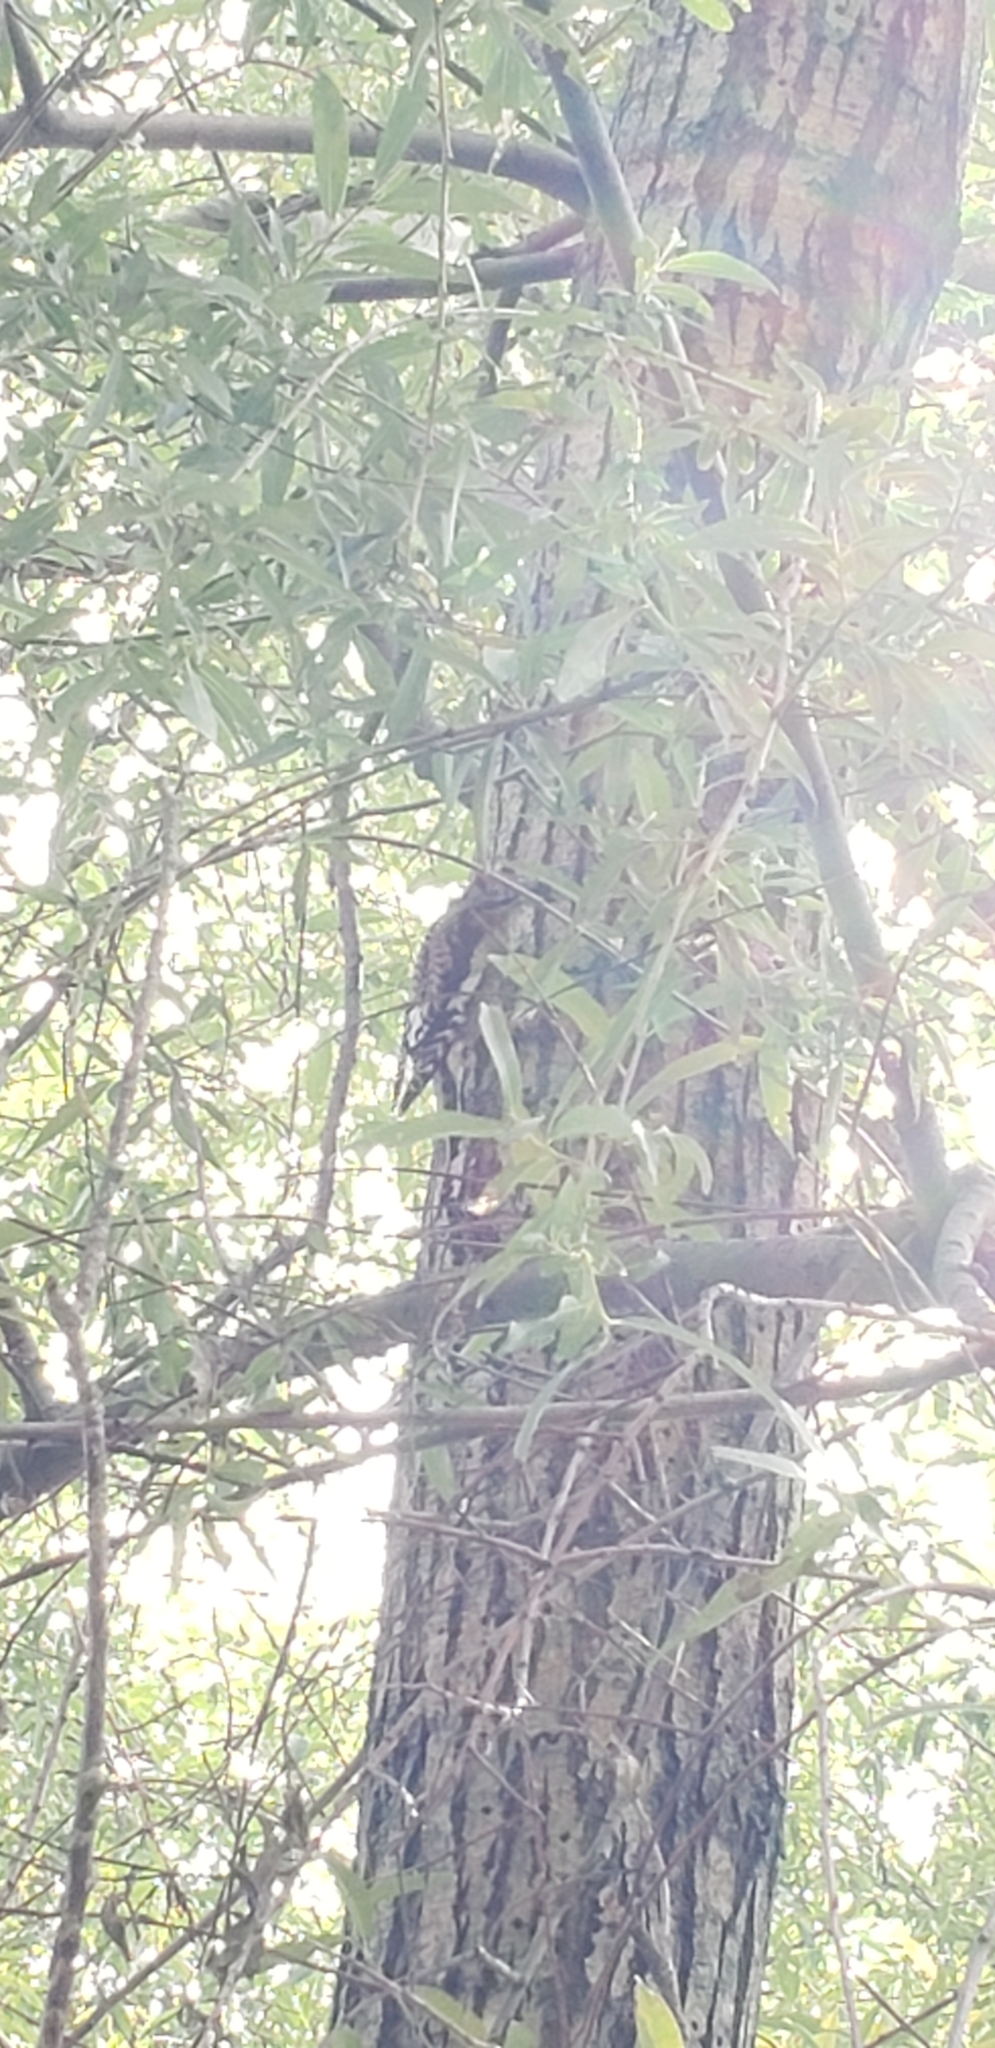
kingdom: Animalia
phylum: Chordata
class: Aves
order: Piciformes
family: Picidae
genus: Sphyrapicus
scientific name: Sphyrapicus varius
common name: Yellow-bellied sapsucker
